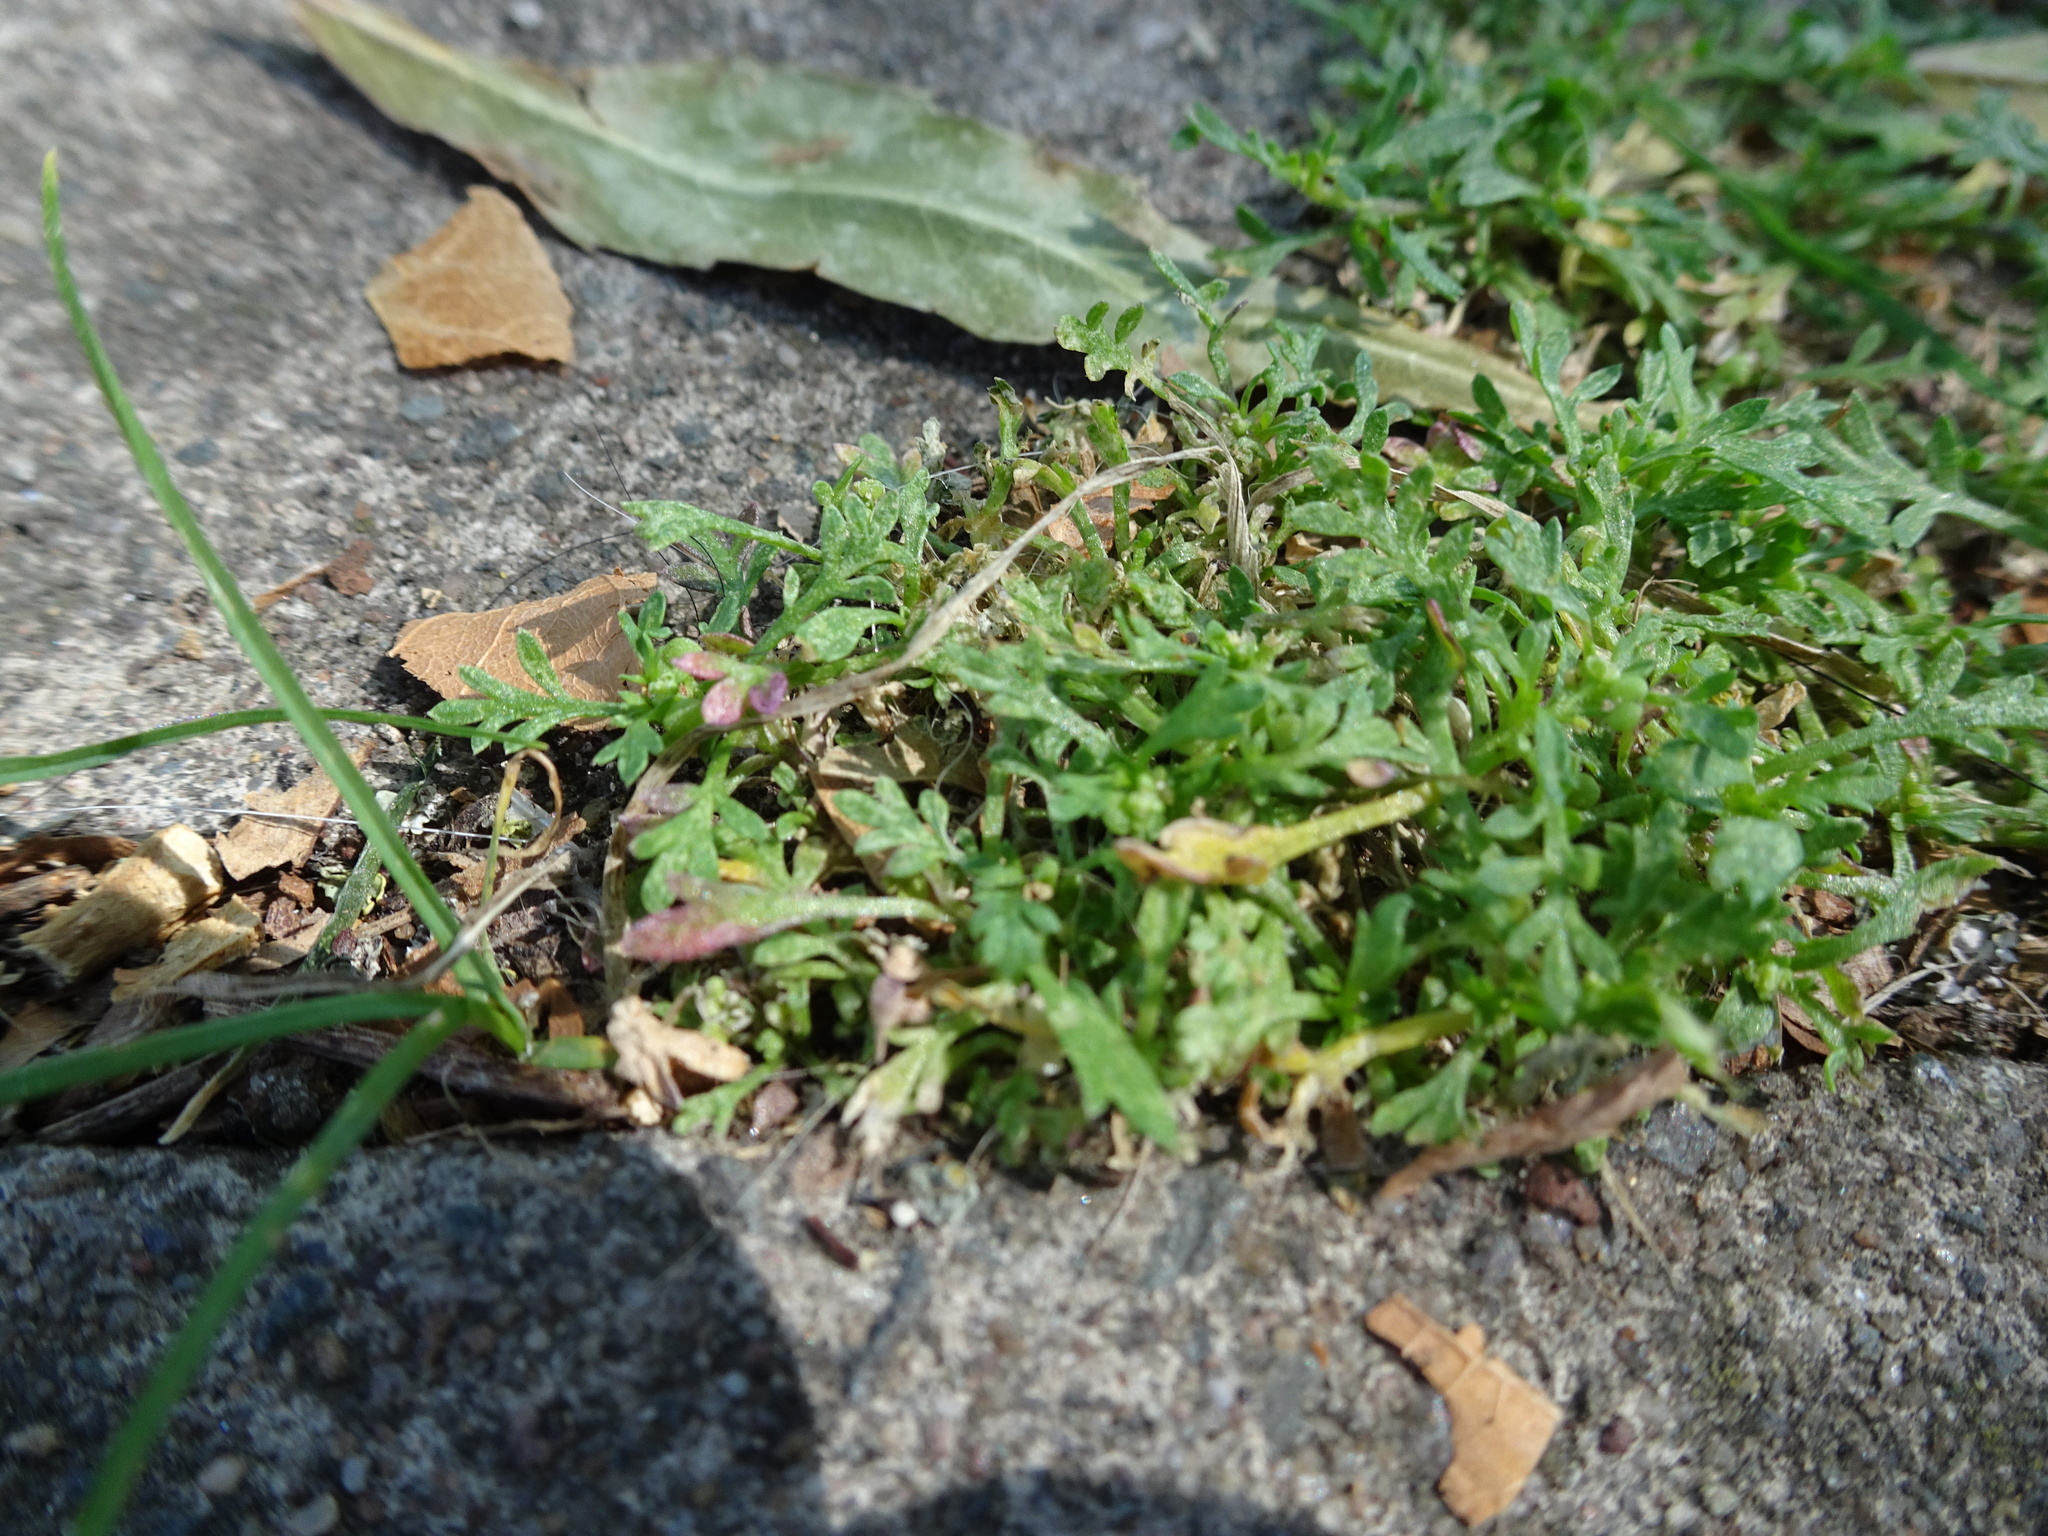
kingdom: Plantae
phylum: Tracheophyta
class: Magnoliopsida
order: Brassicales
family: Brassicaceae
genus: Lepidium
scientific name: Lepidium didymum
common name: Lesser swinecress
